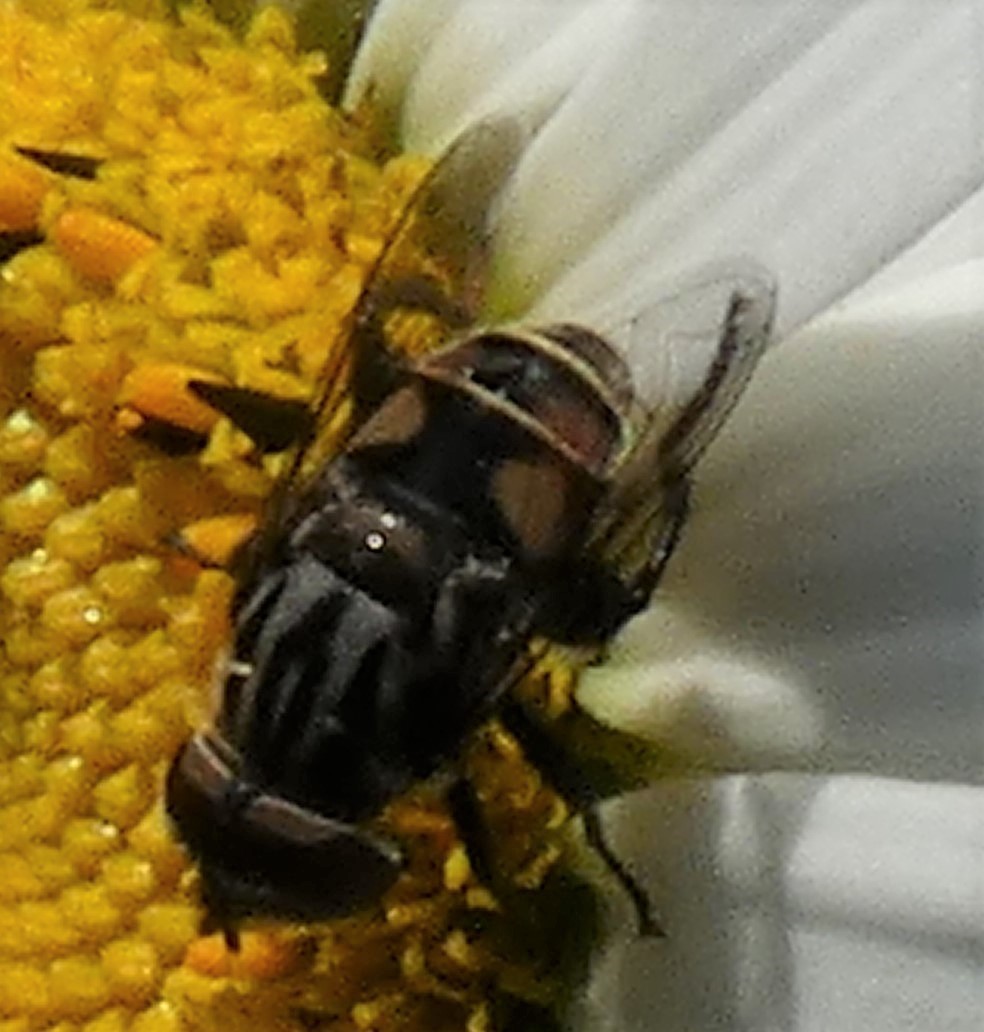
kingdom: Animalia
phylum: Arthropoda
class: Insecta
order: Diptera
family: Syrphidae
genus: Palpada
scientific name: Palpada furcata
